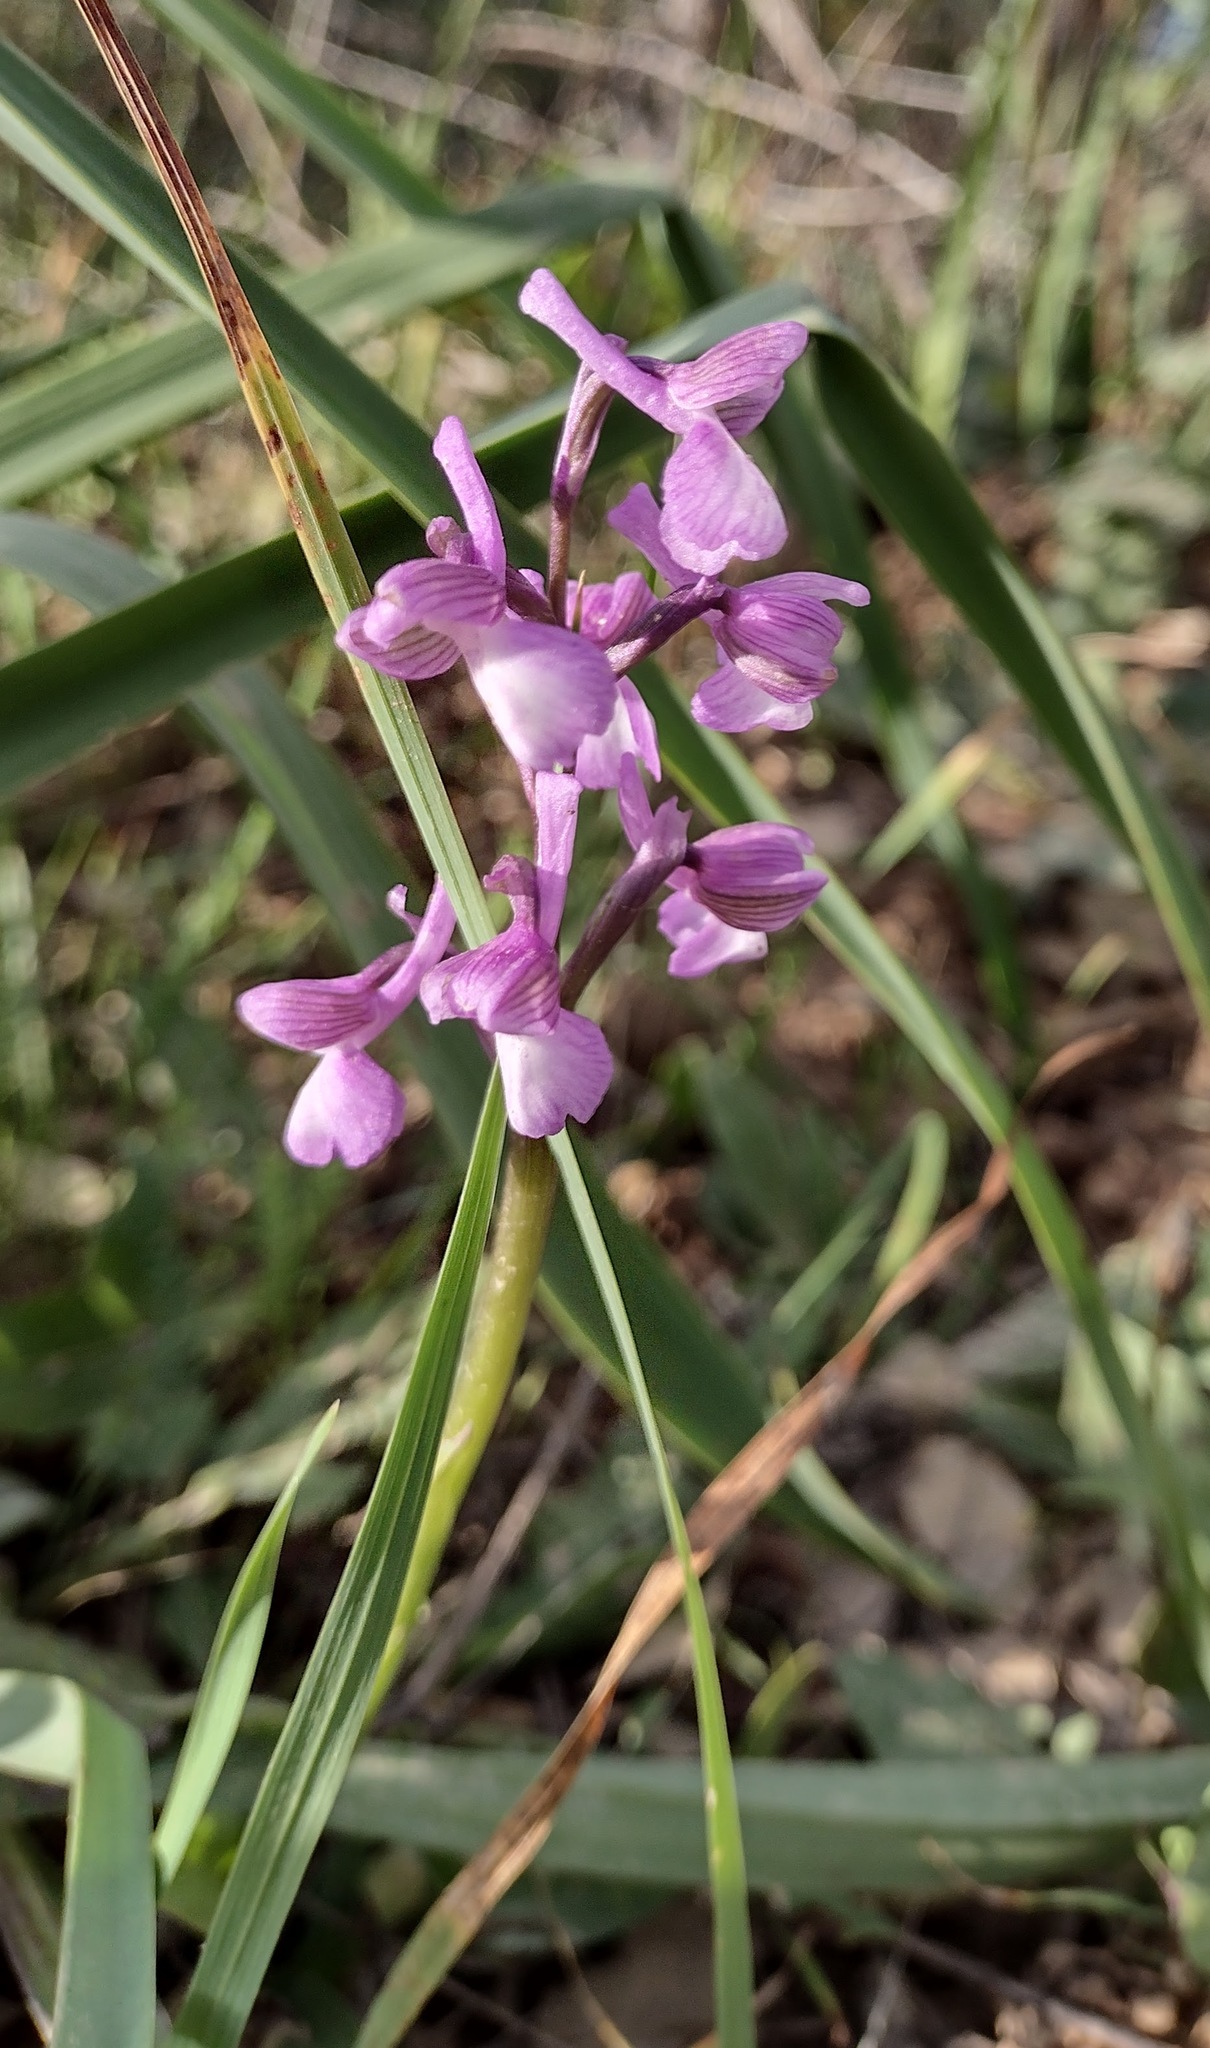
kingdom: Plantae
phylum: Tracheophyta
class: Liliopsida
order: Asparagales
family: Orchidaceae
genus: Anacamptis
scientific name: Anacamptis morio
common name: Green-winged orchid
